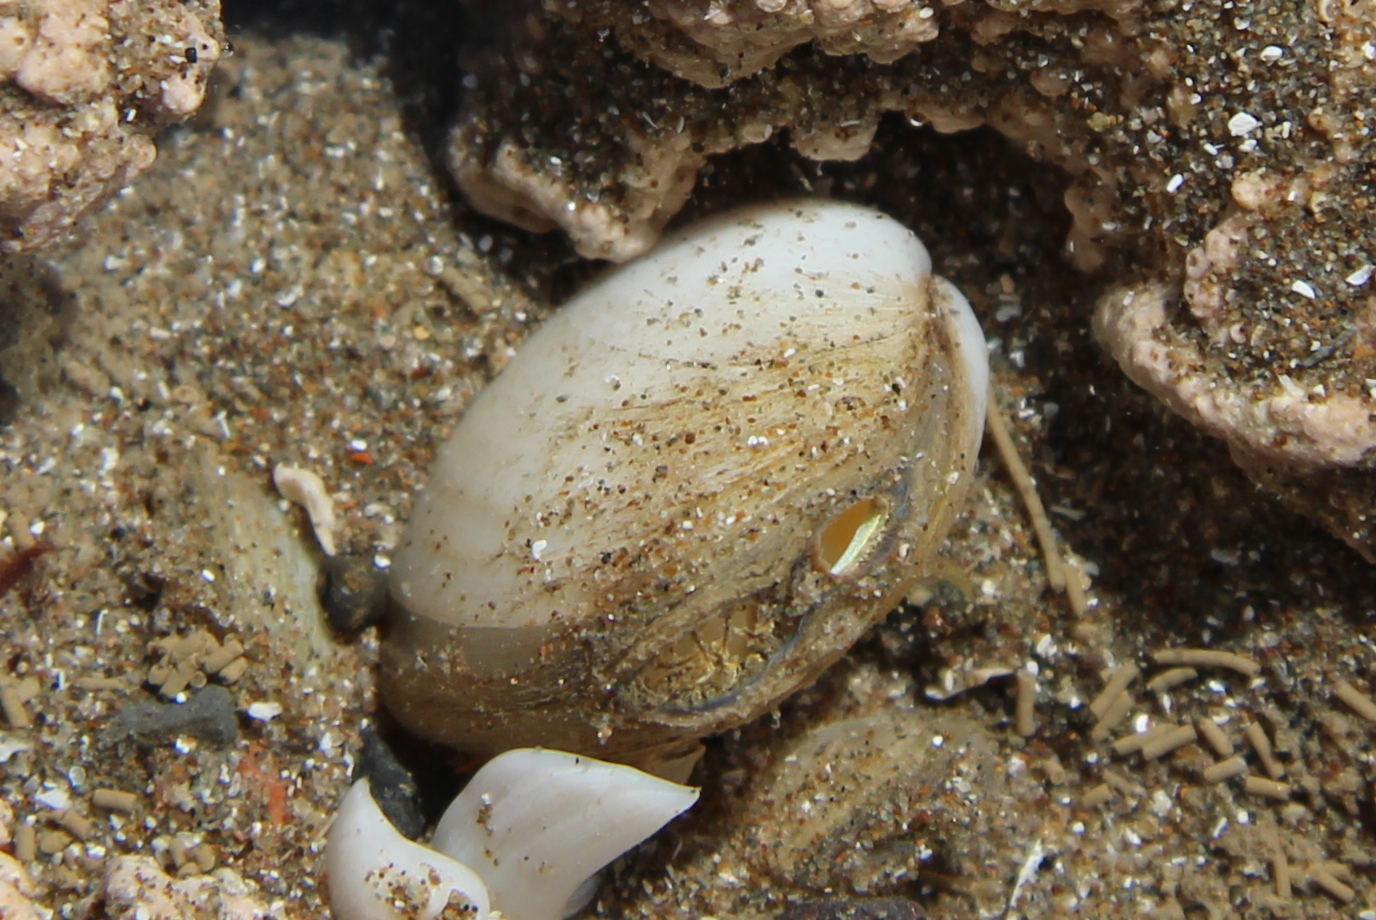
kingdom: Animalia
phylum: Mollusca
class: Bivalvia
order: Venerida
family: Mesodesmatidae
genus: Paphies
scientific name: Paphies australis
